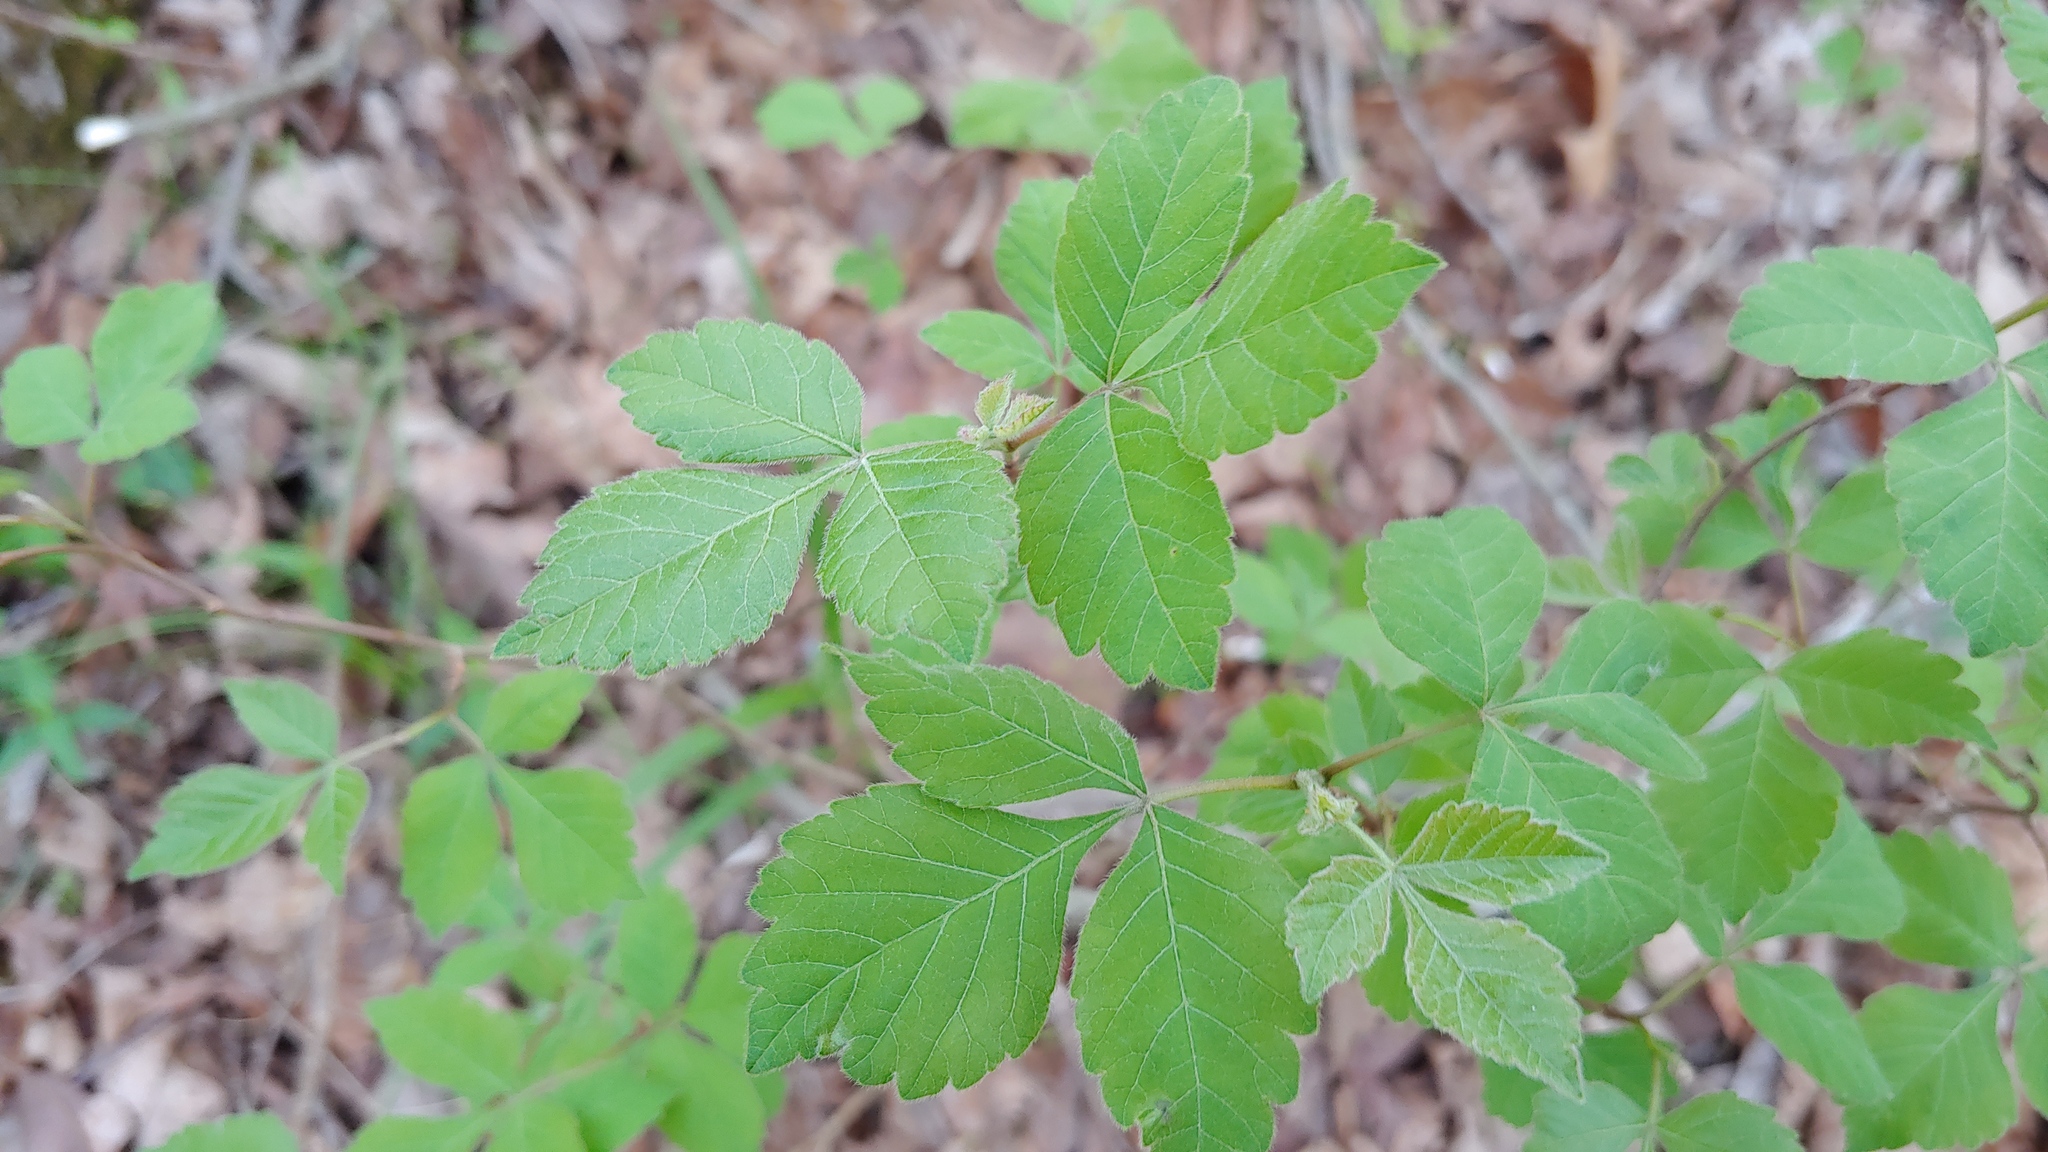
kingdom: Plantae
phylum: Tracheophyta
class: Magnoliopsida
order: Sapindales
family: Anacardiaceae
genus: Rhus
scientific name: Rhus aromatica
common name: Aromatic sumac
